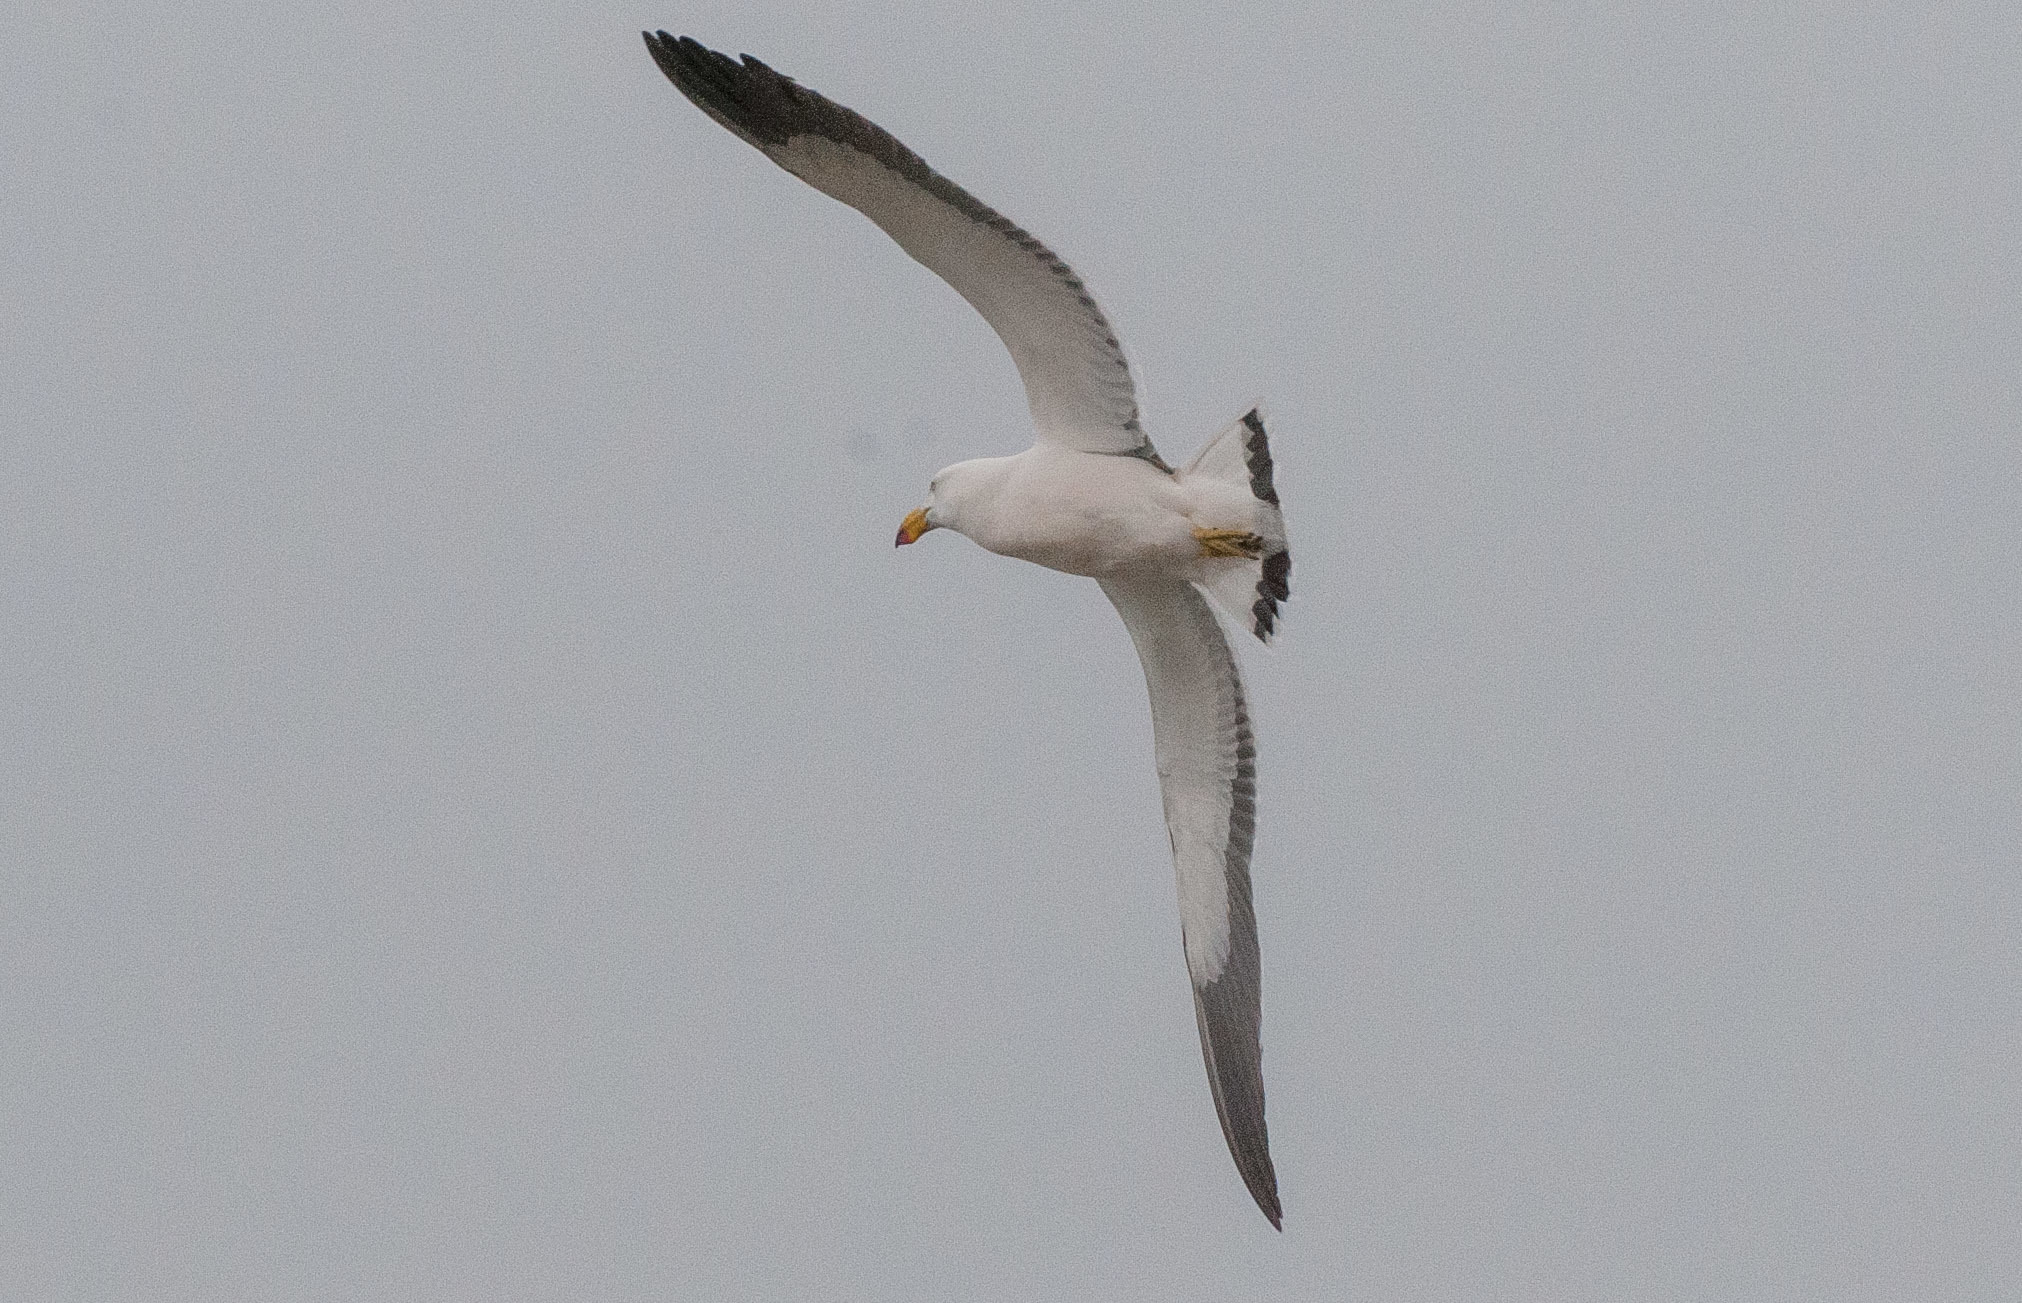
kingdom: Animalia
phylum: Chordata
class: Aves
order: Charadriiformes
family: Laridae
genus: Larus
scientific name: Larus pacificus
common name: Pacific gull
